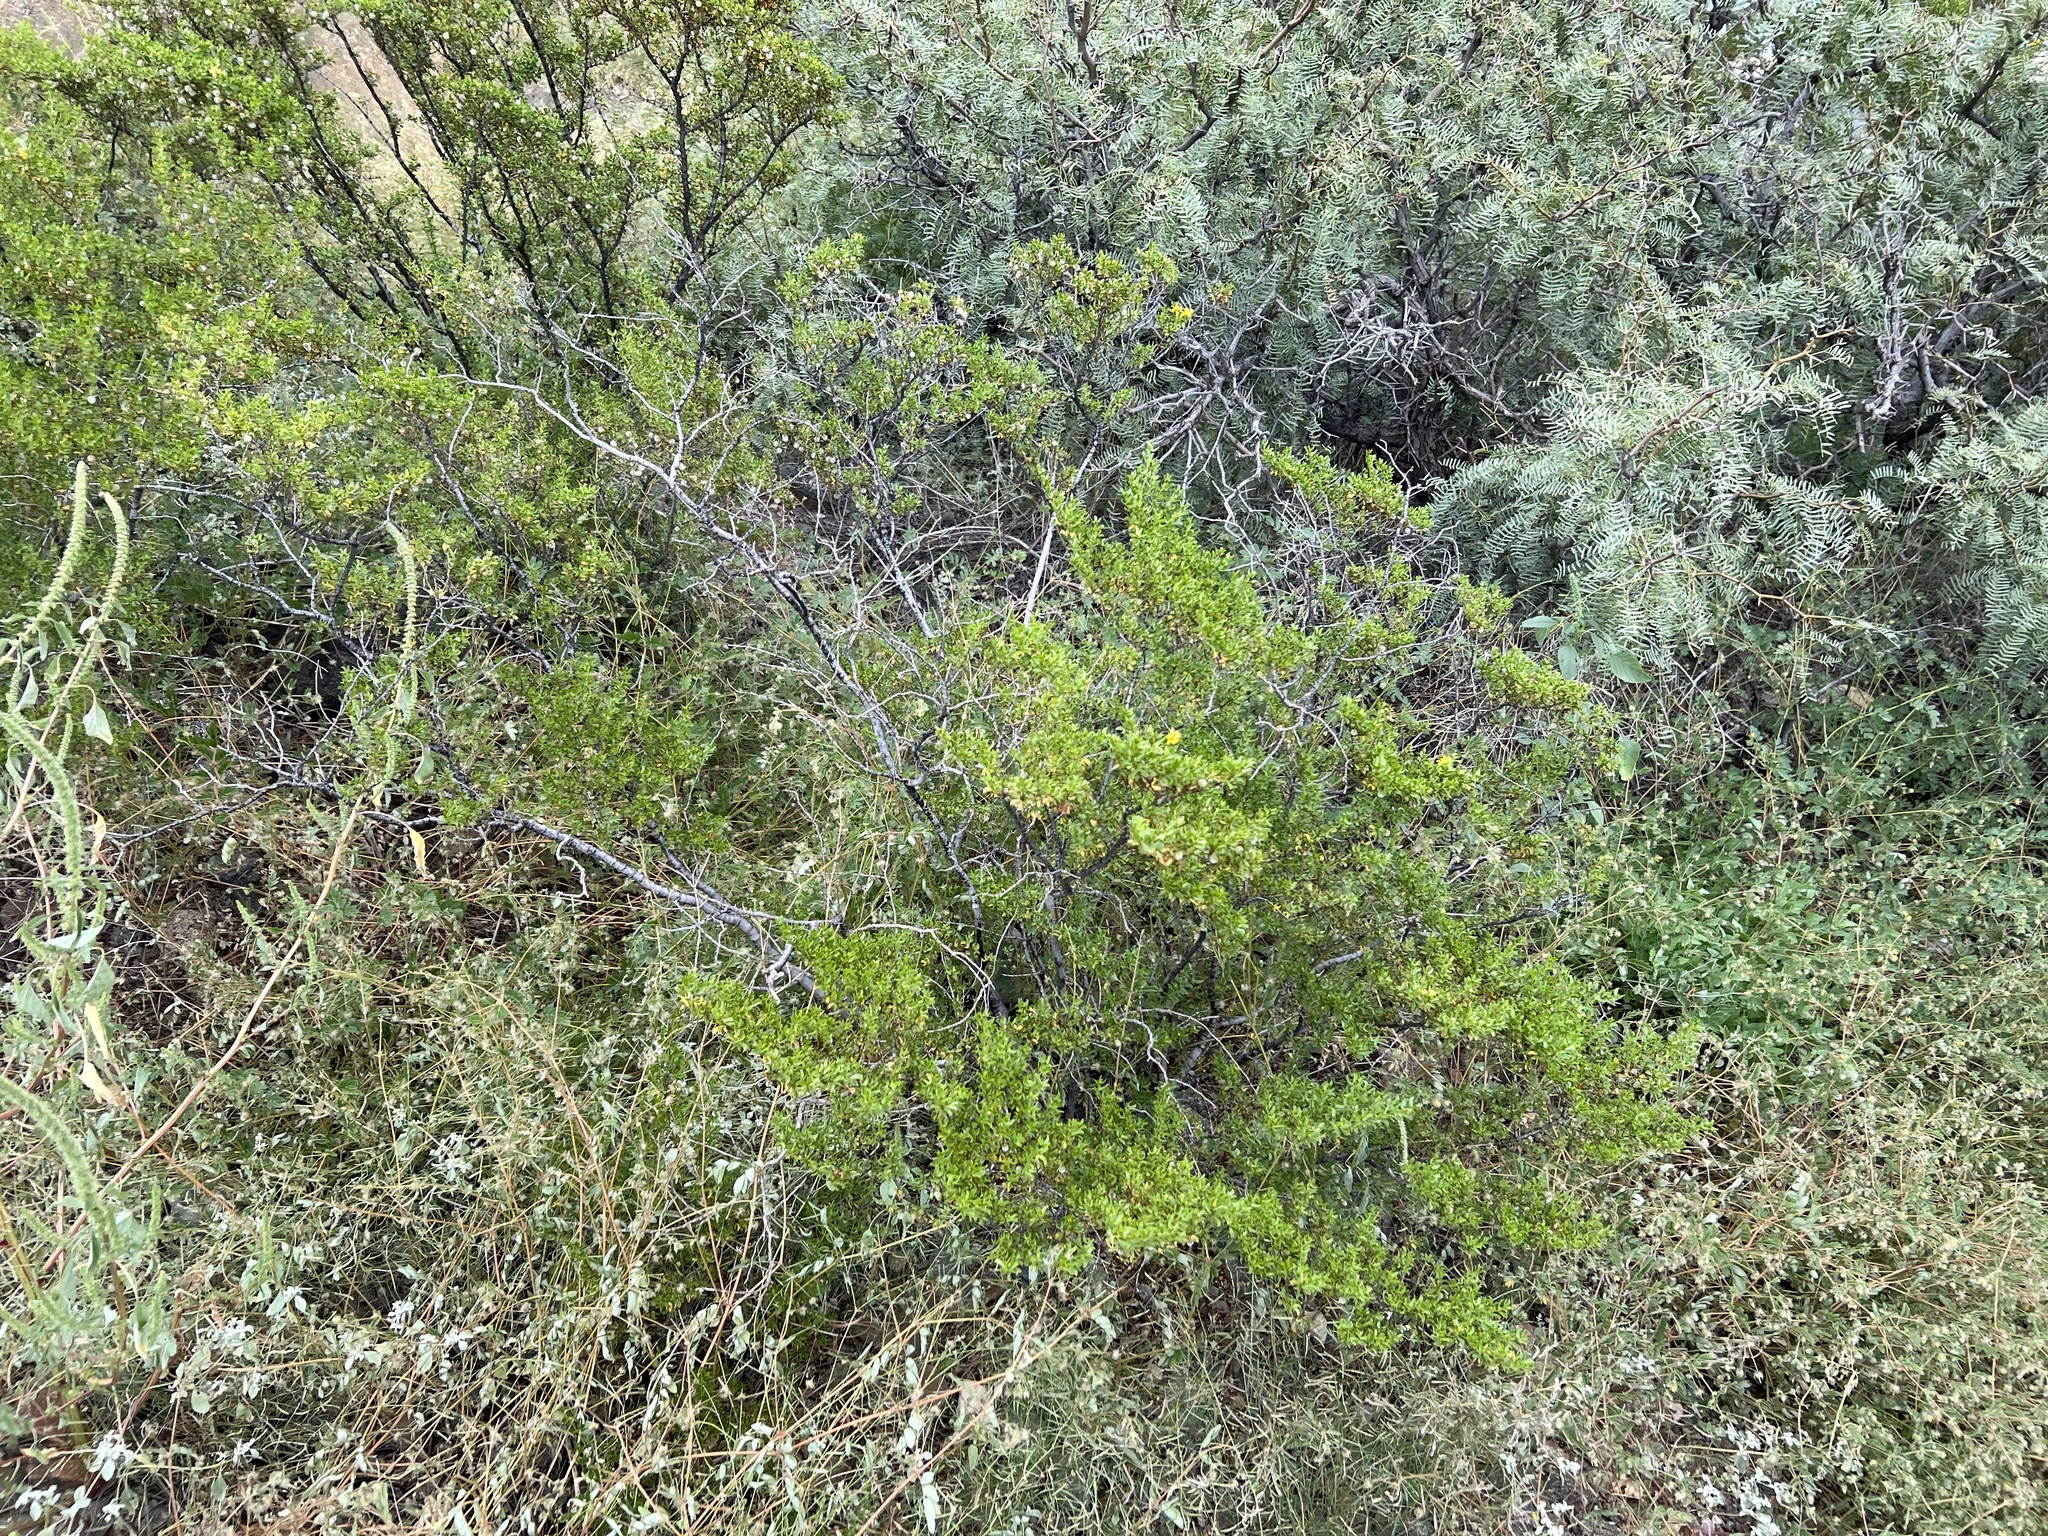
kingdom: Plantae
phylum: Tracheophyta
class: Magnoliopsida
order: Zygophyllales
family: Zygophyllaceae
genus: Larrea
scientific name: Larrea tridentata
